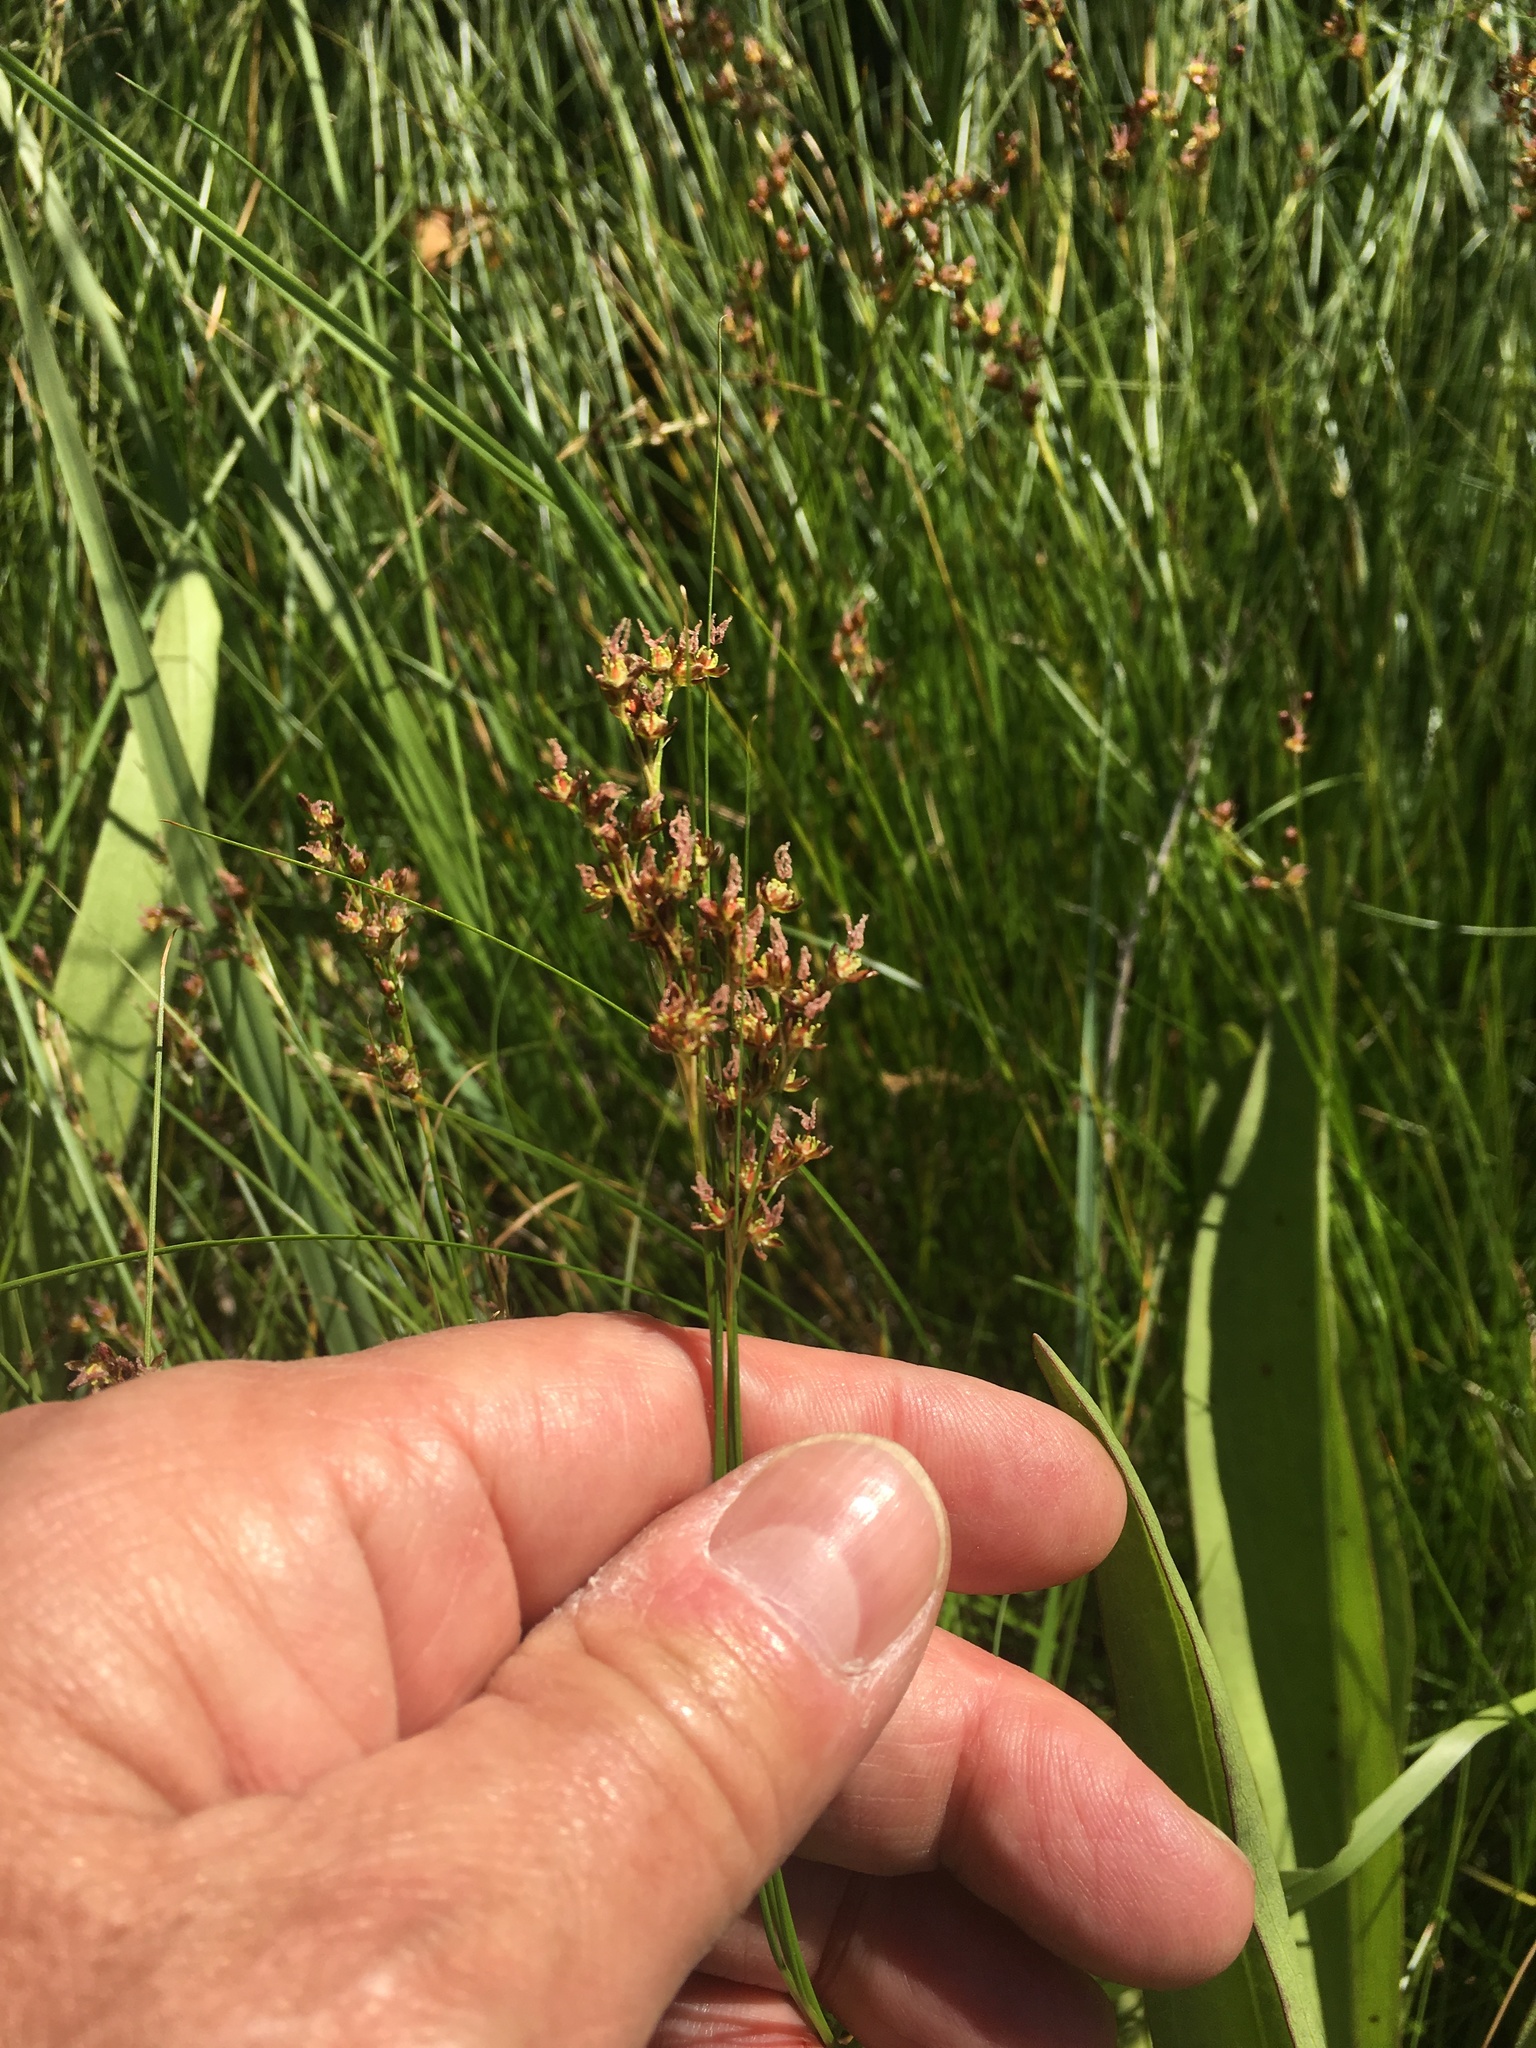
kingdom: Plantae
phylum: Tracheophyta
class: Liliopsida
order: Poales
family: Juncaceae
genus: Juncus
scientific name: Juncus gerardi
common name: Saltmarsh rush
